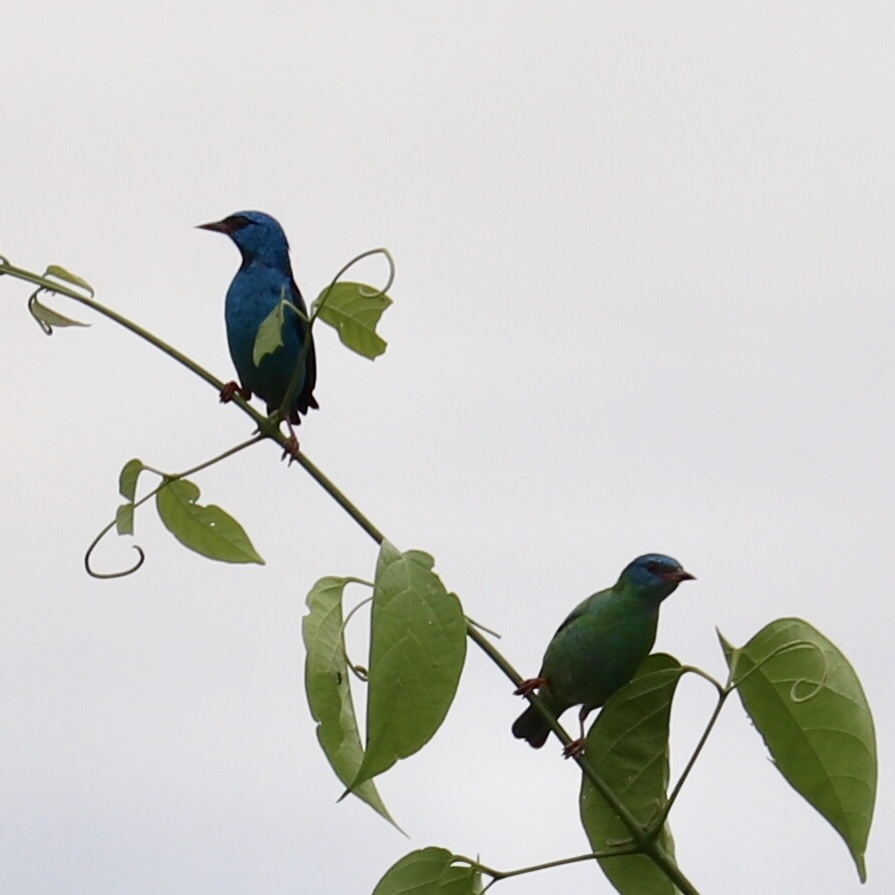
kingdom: Animalia
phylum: Chordata
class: Aves
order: Passeriformes
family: Thraupidae
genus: Dacnis
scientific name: Dacnis cayana
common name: Blue dacnis
